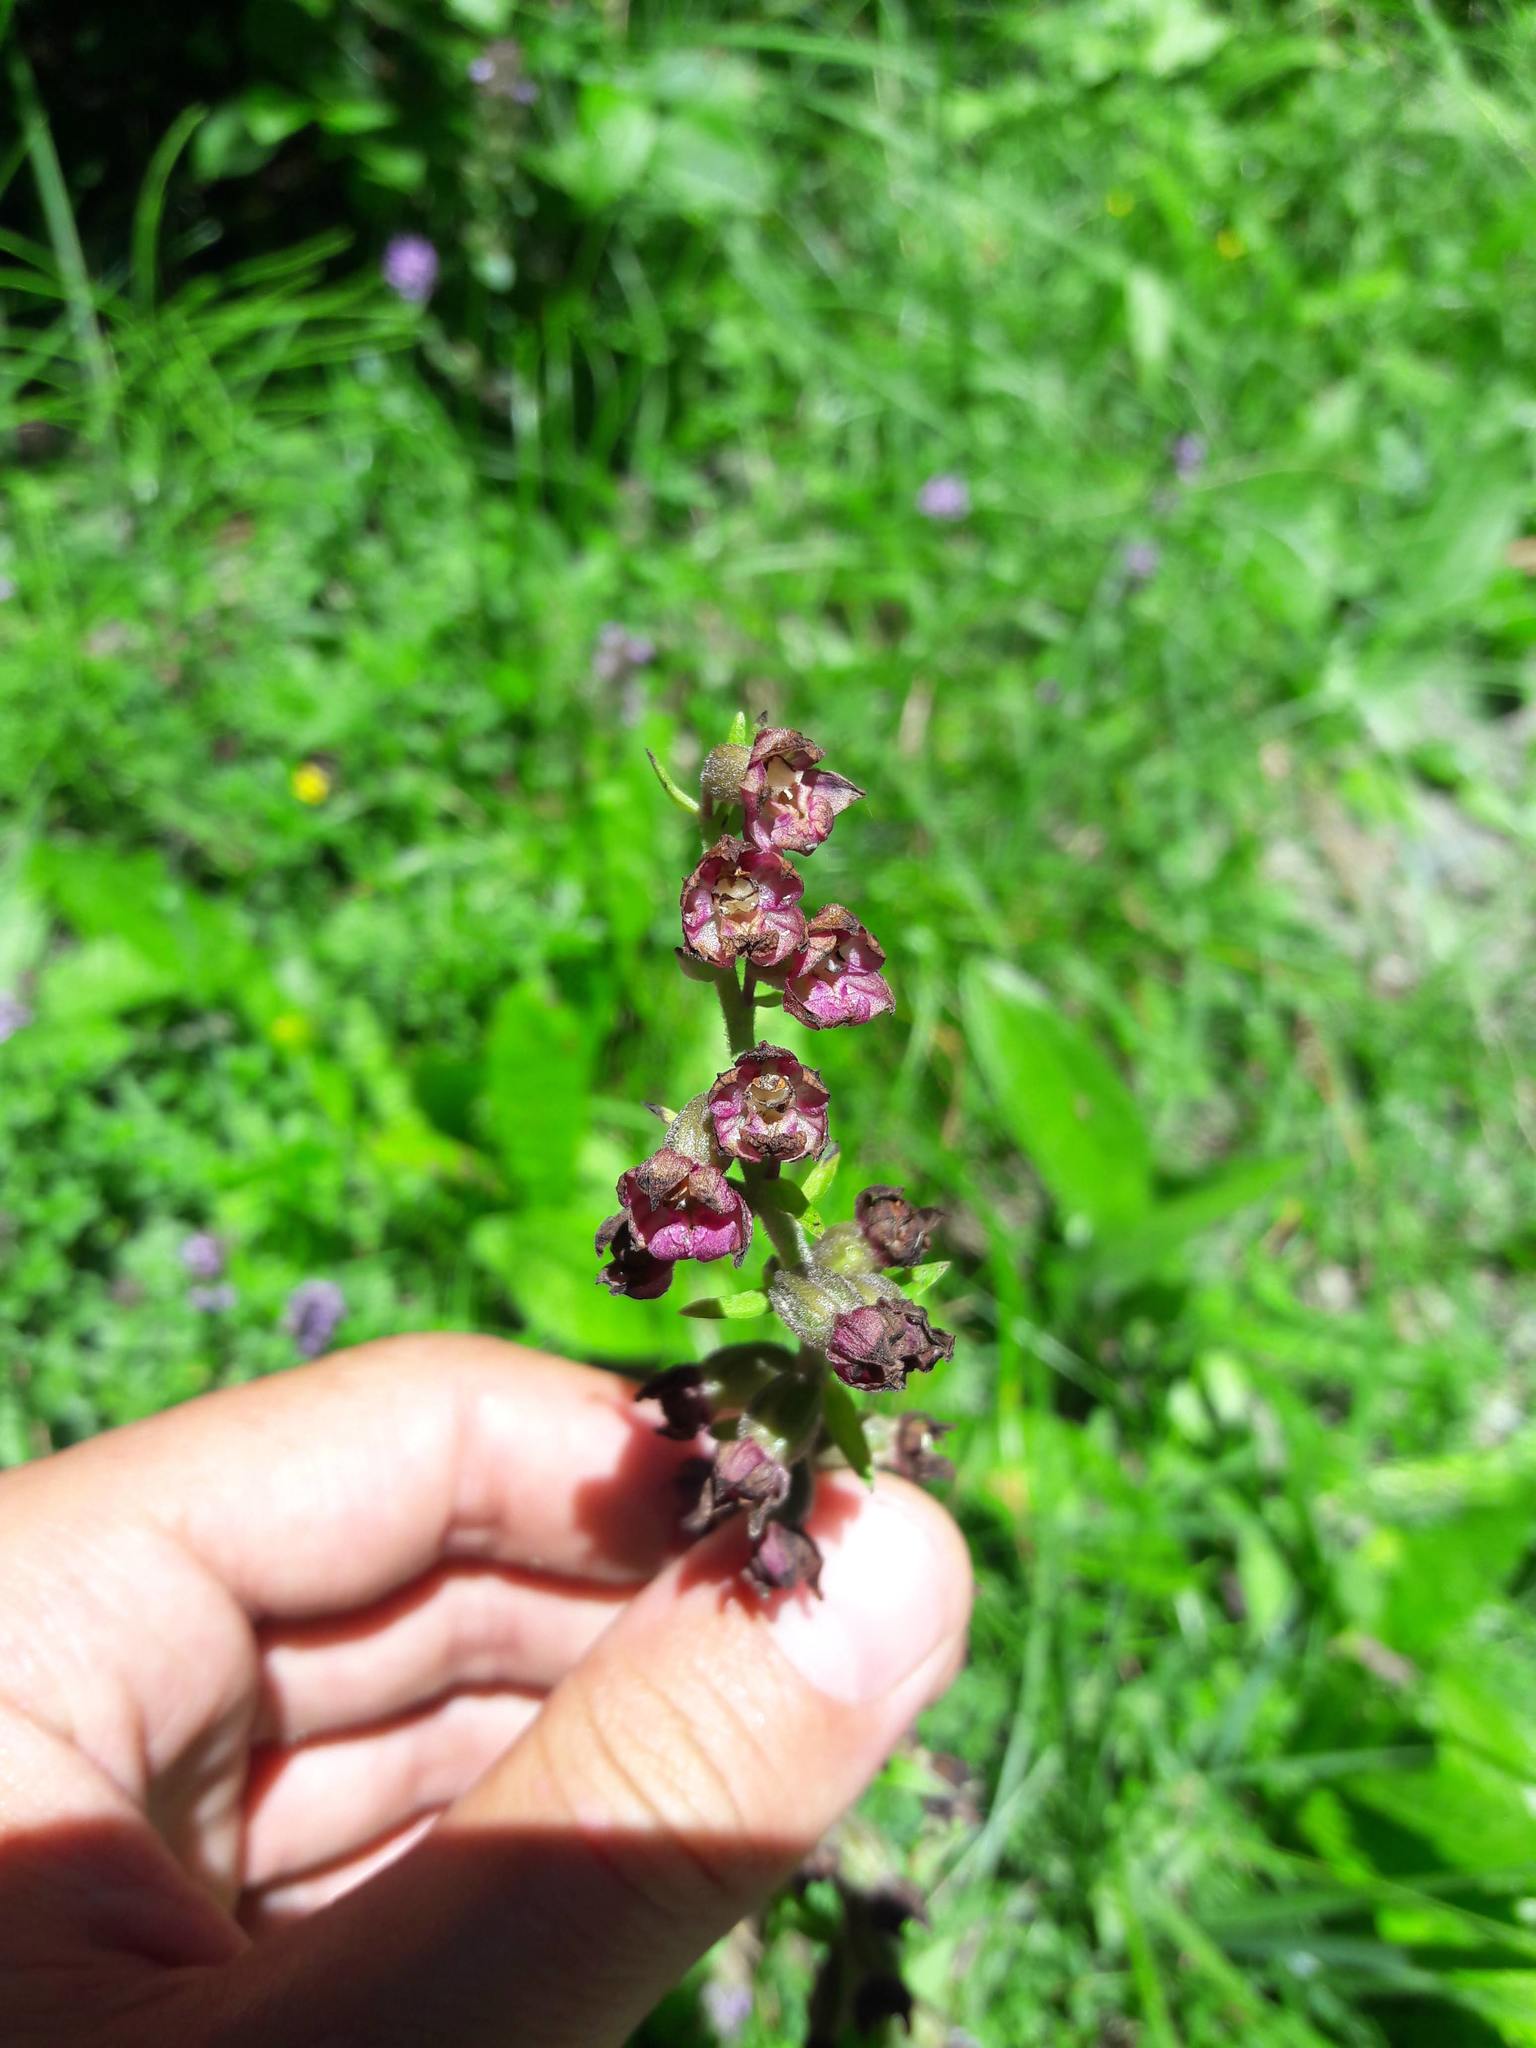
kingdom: Plantae
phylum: Tracheophyta
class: Liliopsida
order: Asparagales
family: Orchidaceae
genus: Epipactis
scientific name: Epipactis atrorubens
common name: Dark-red helleborine
